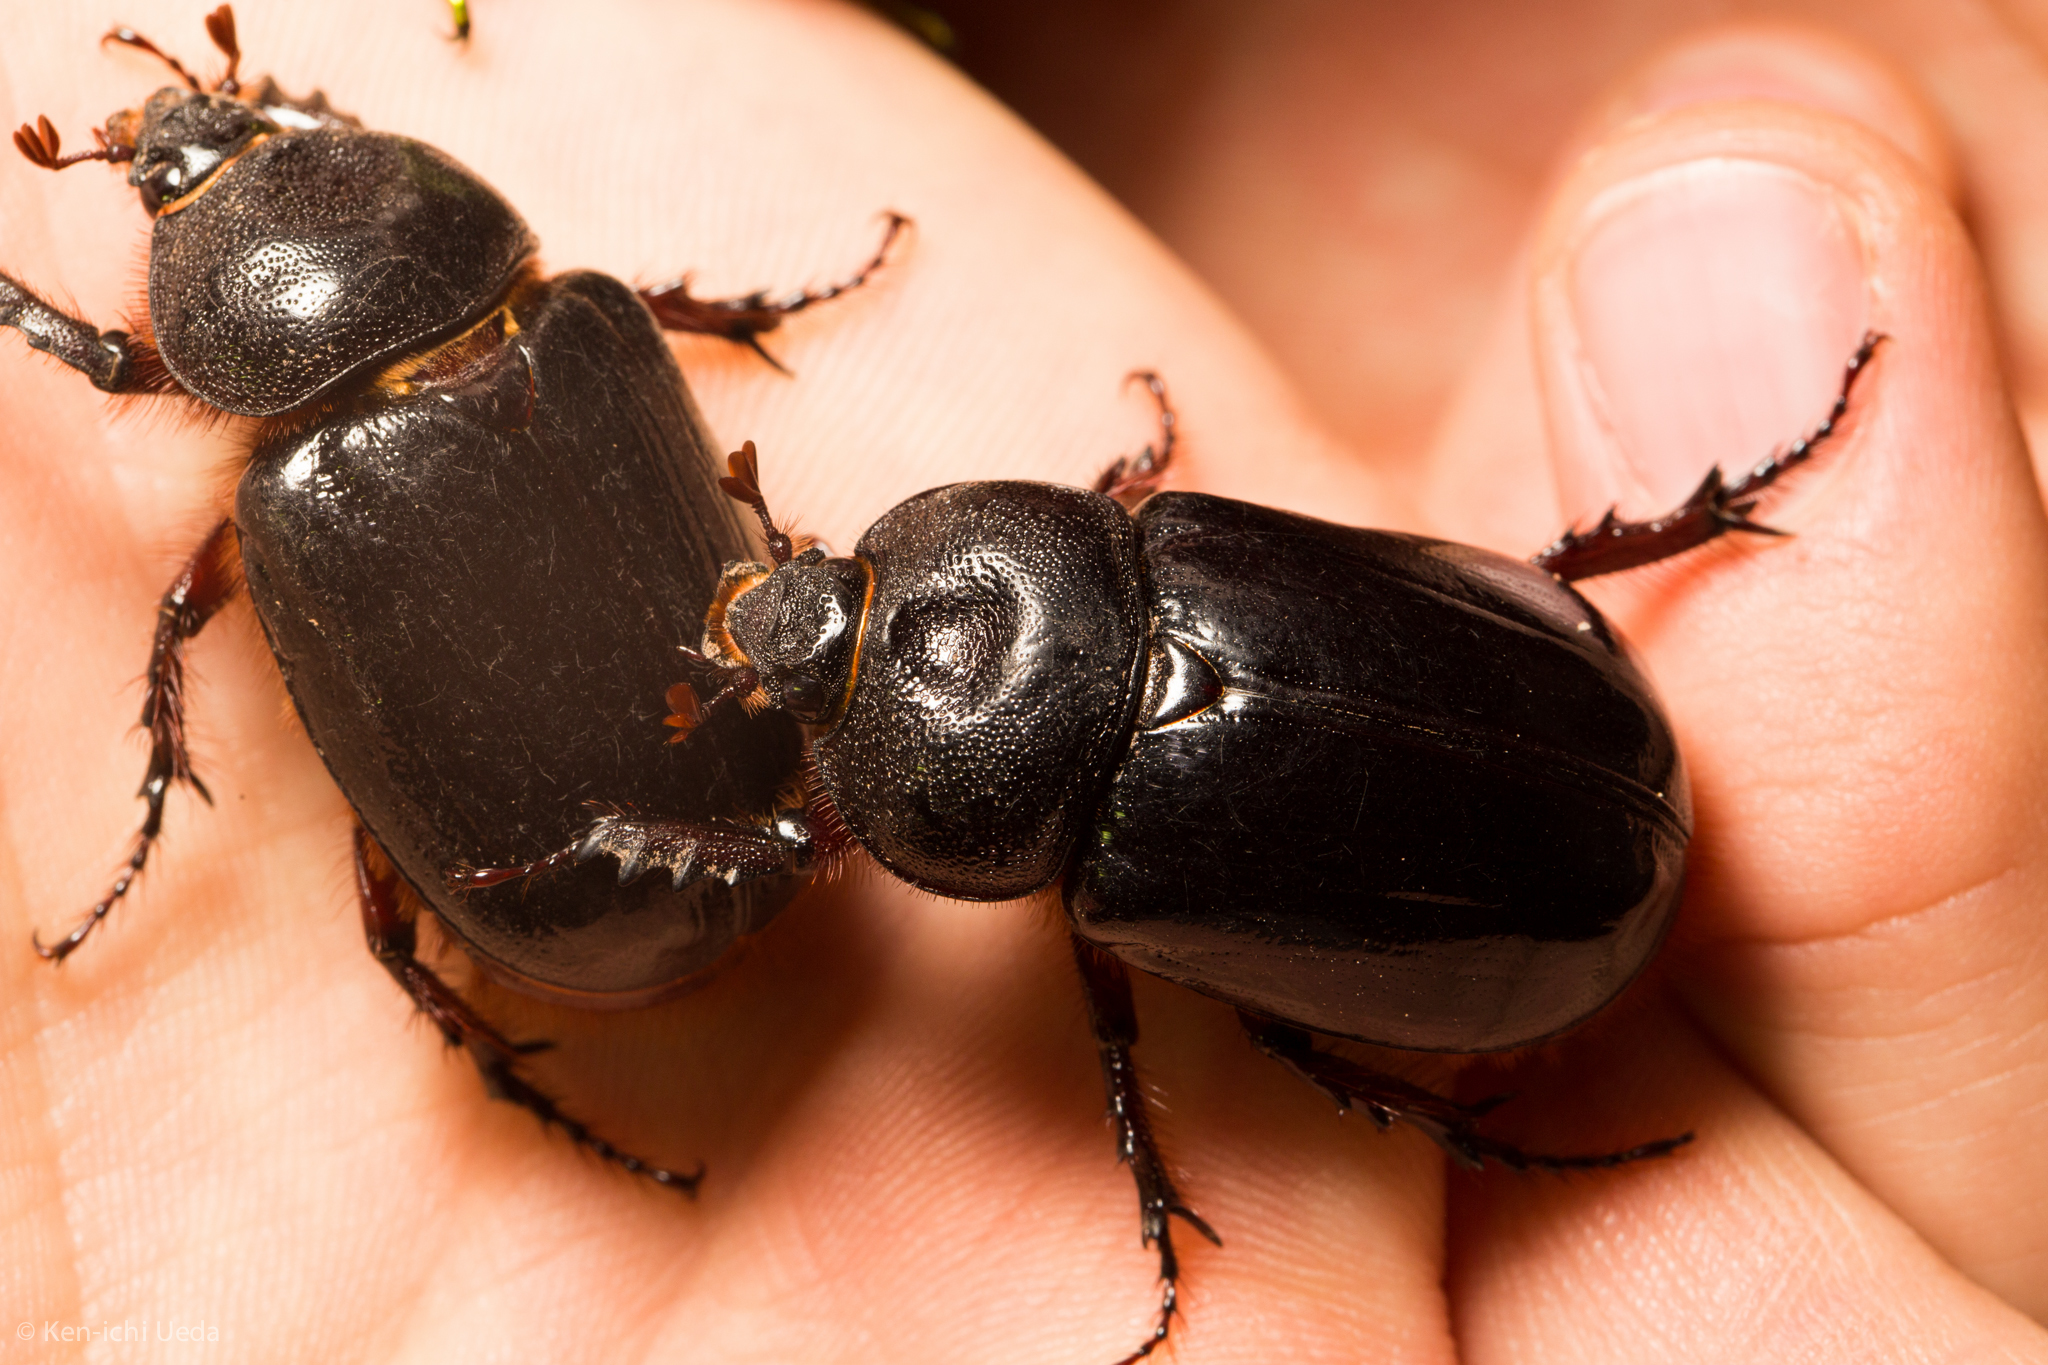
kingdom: Animalia
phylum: Arthropoda
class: Insecta
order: Coleoptera
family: Scarabaeidae
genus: Strategus
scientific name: Strategus cessus
